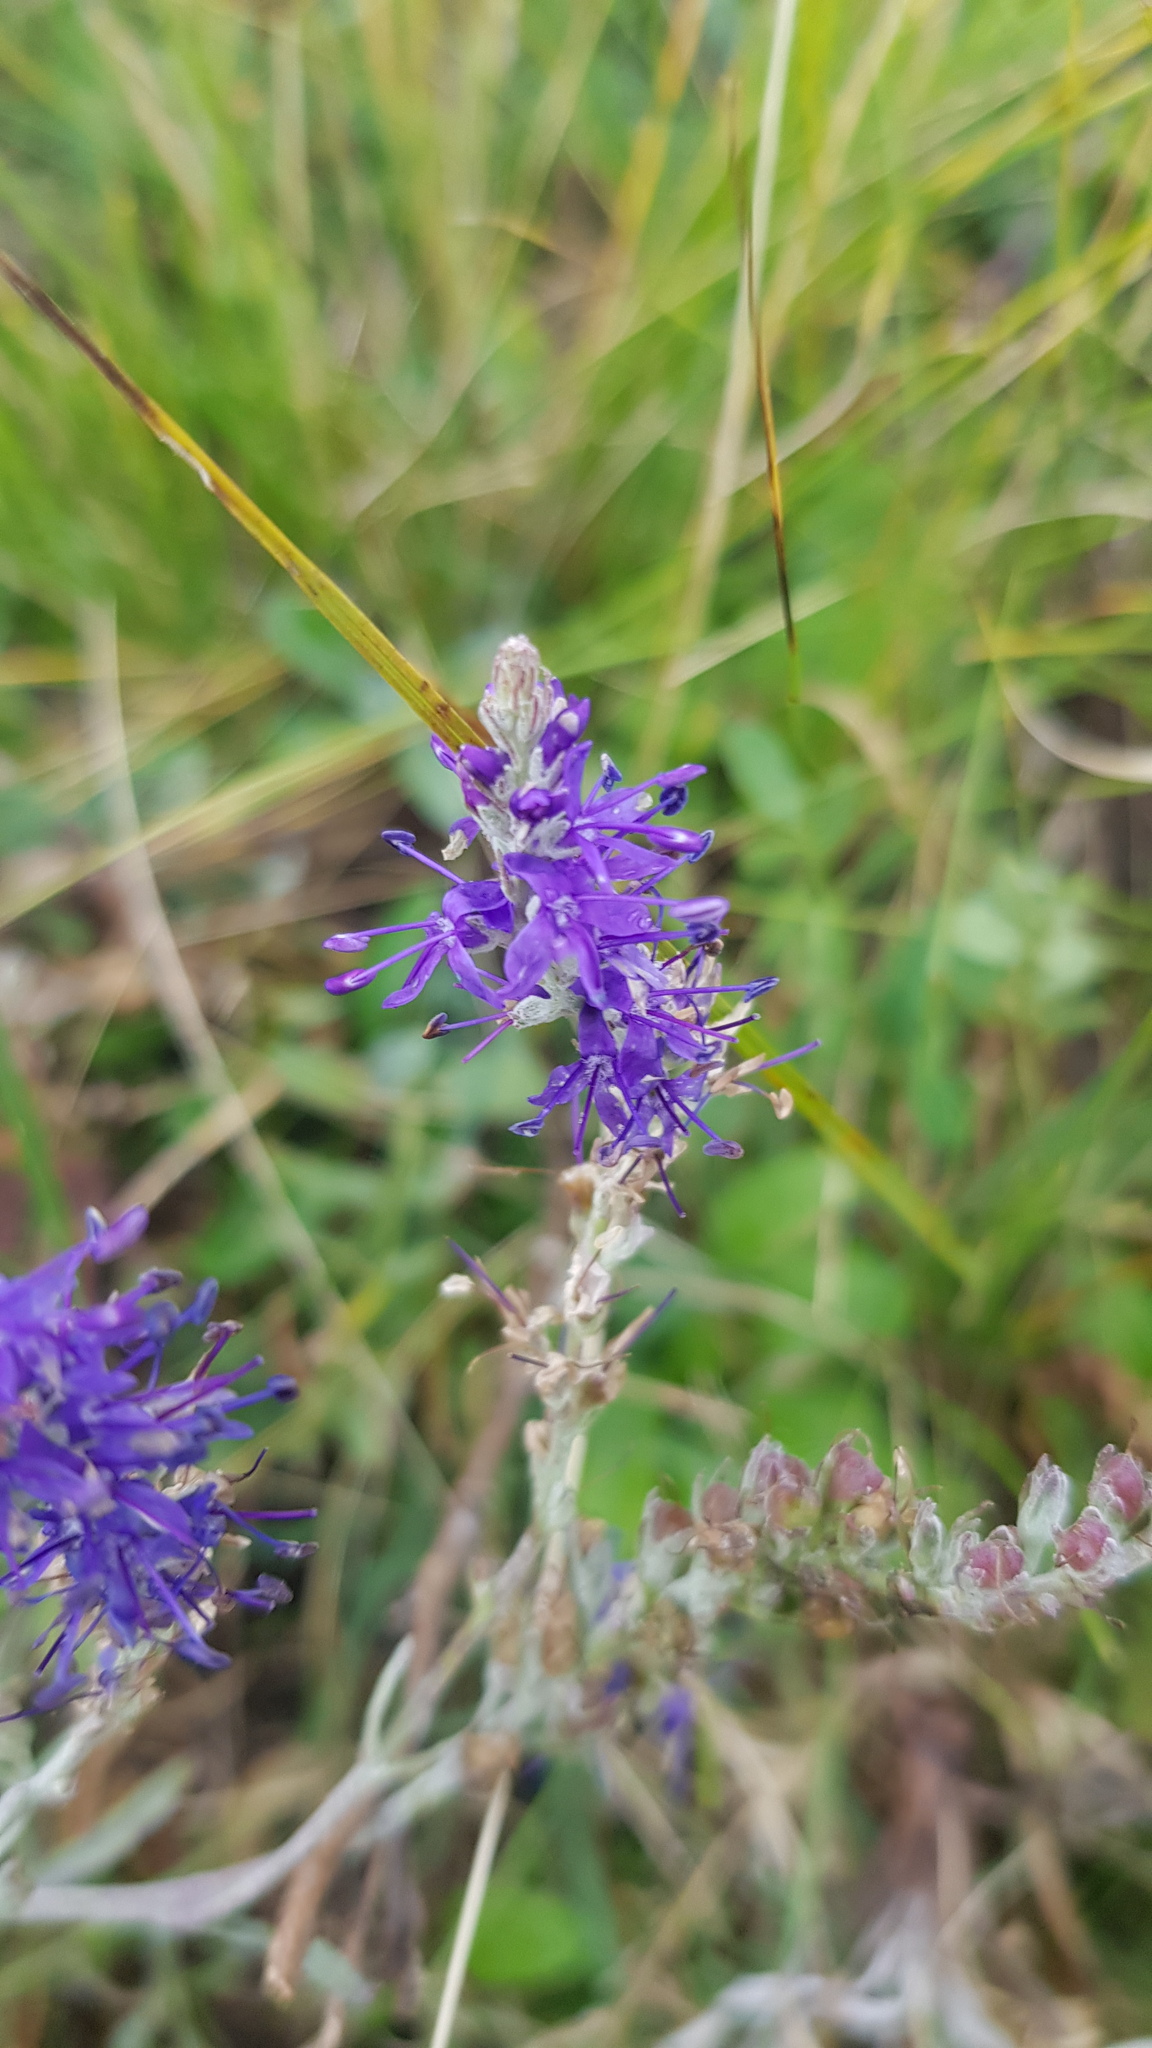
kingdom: Plantae
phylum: Tracheophyta
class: Magnoliopsida
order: Lamiales
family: Plantaginaceae
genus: Veronica
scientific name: Veronica incana
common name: Silver speedwell
